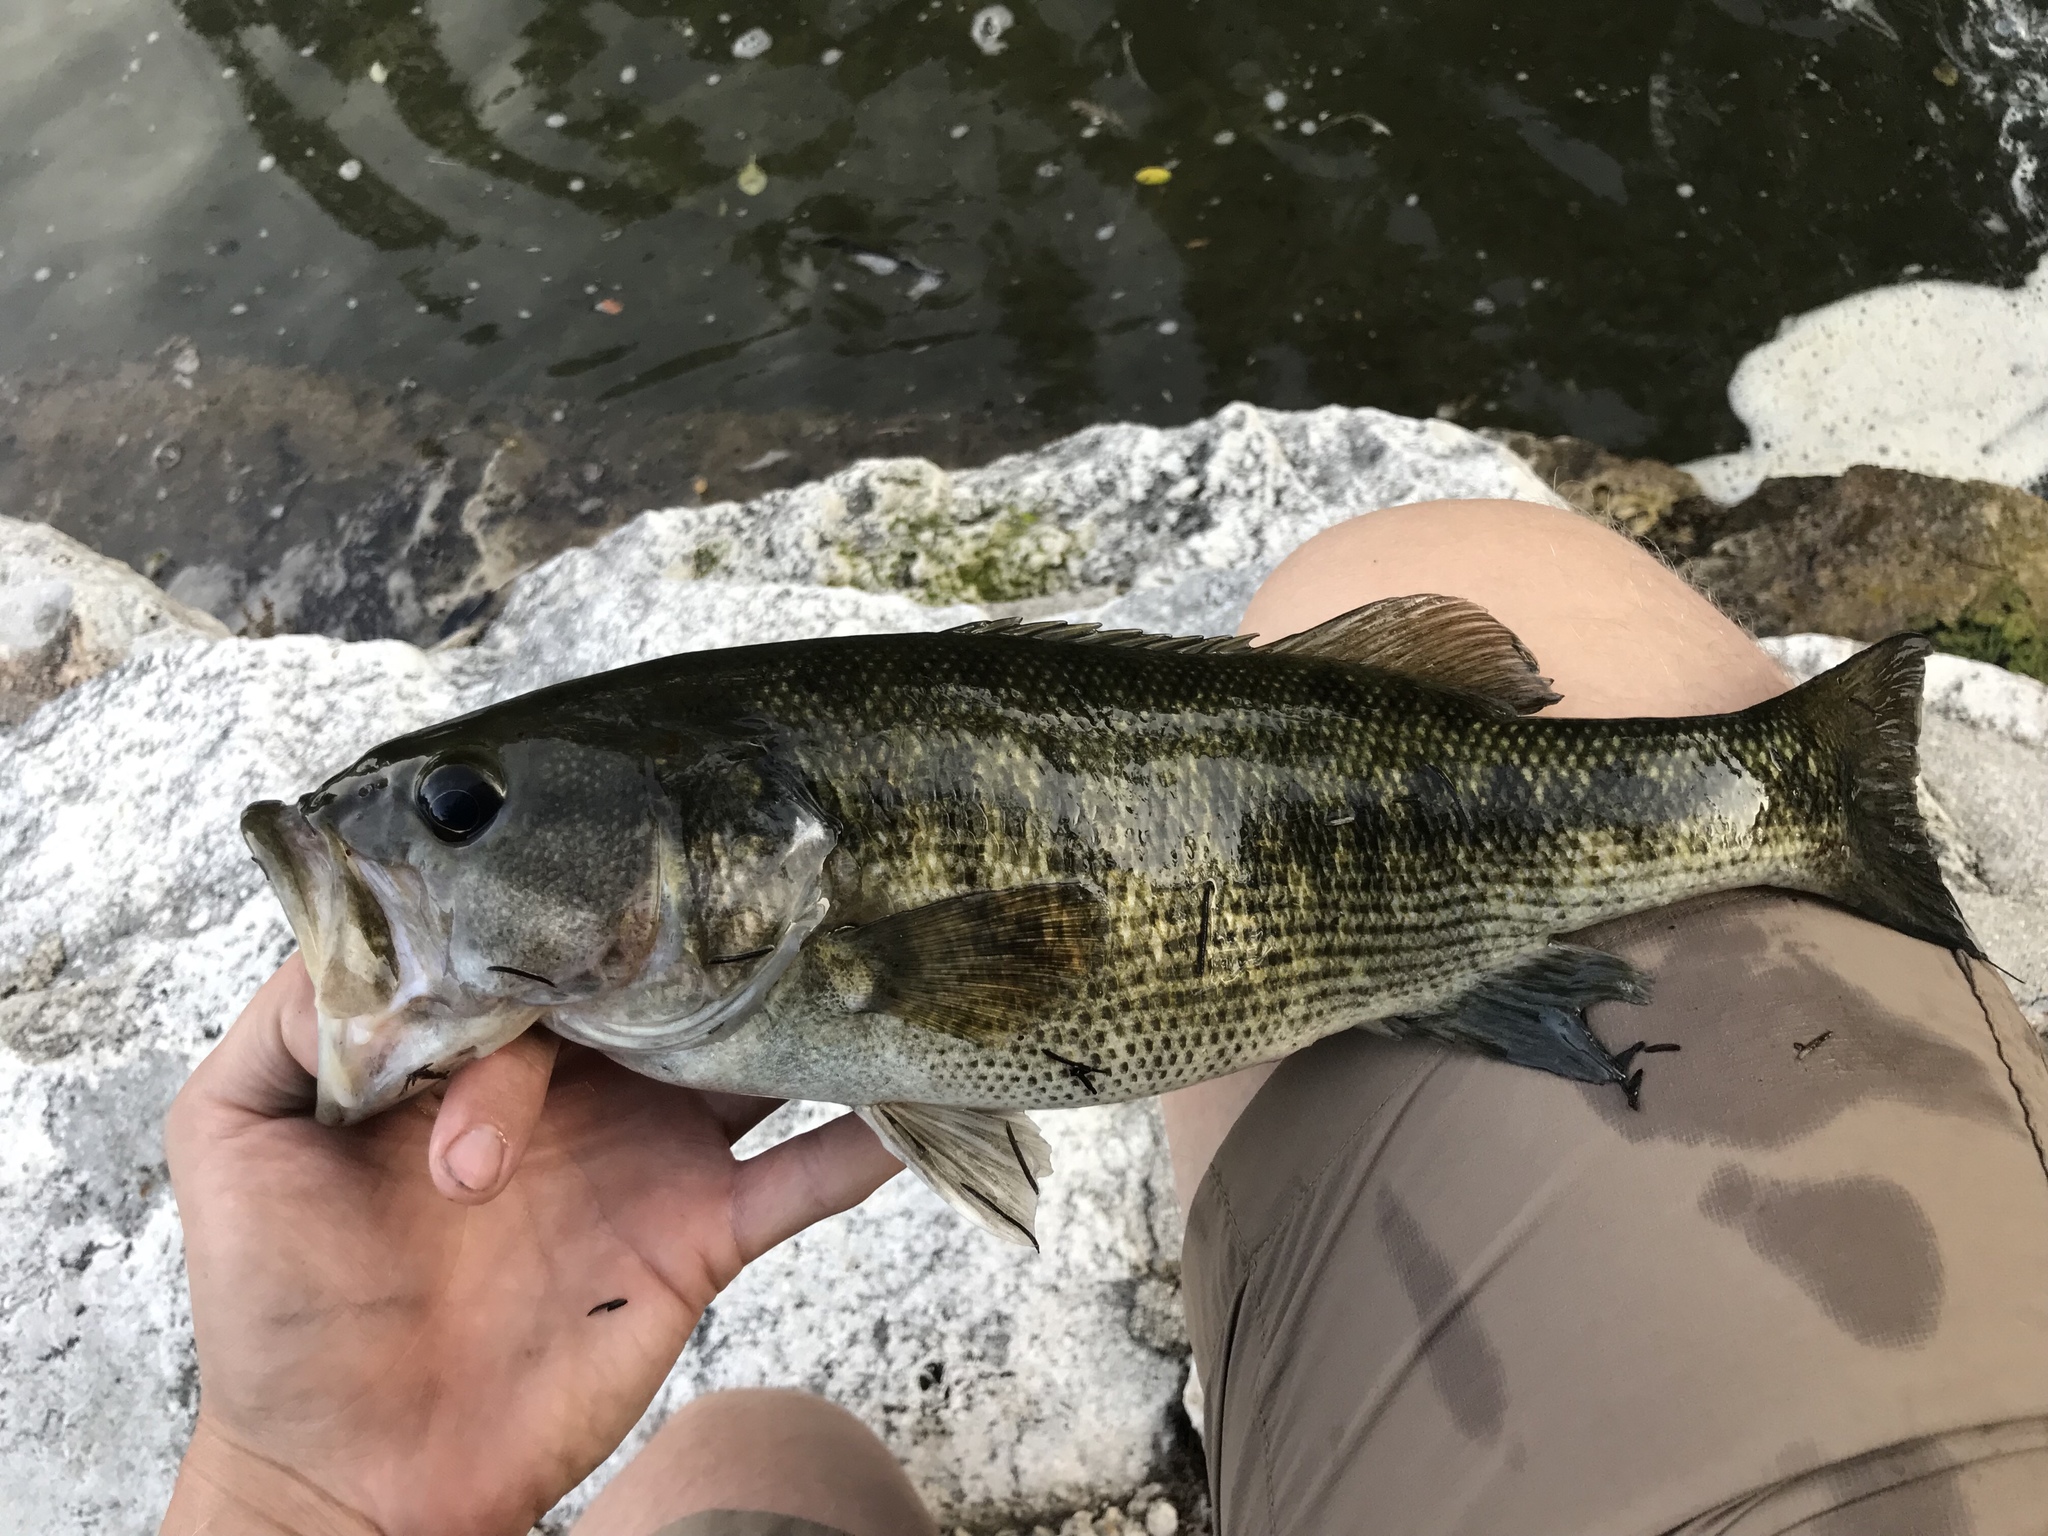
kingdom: Animalia
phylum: Chordata
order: Perciformes
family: Centrarchidae
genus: Micropterus
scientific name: Micropterus treculii
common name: Guadalupe bass
